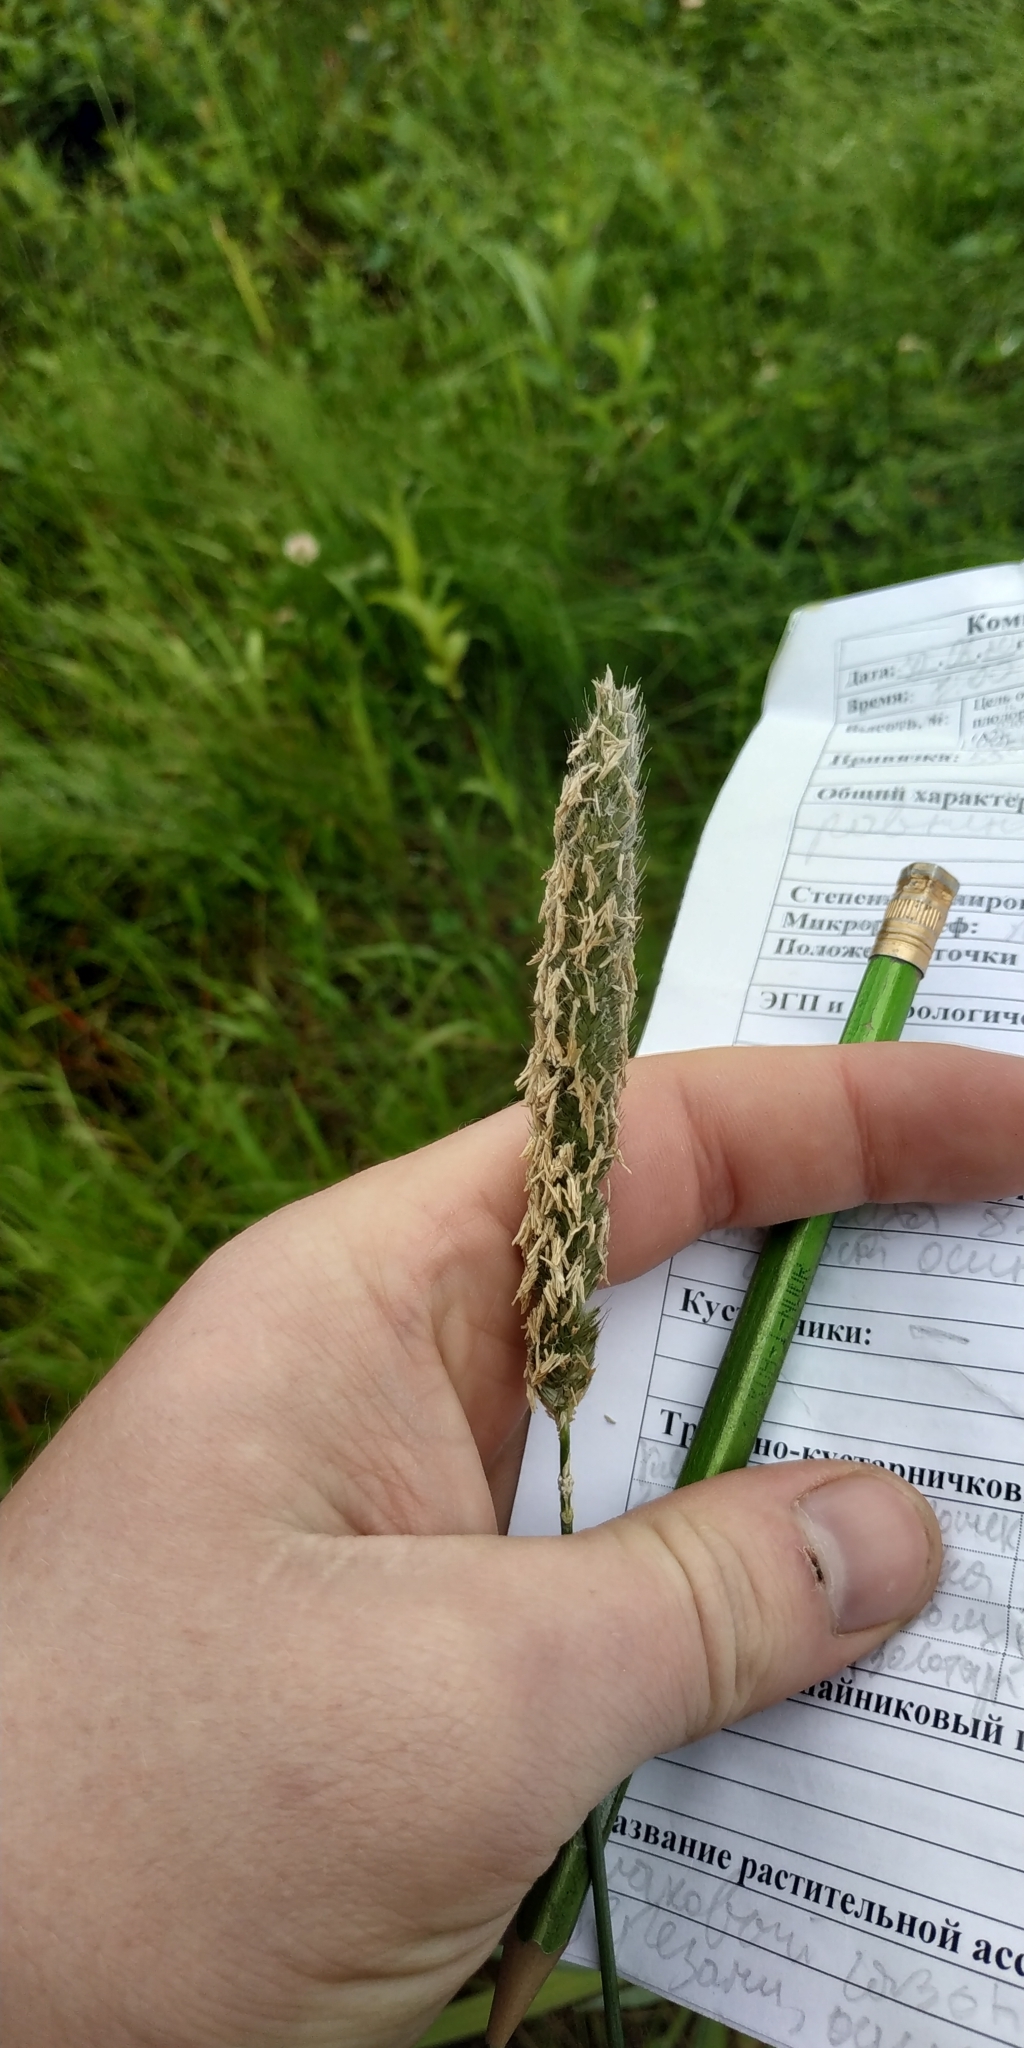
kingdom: Plantae
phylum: Tracheophyta
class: Liliopsida
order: Poales
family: Poaceae
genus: Alopecurus
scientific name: Alopecurus pratensis
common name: Meadow foxtail
